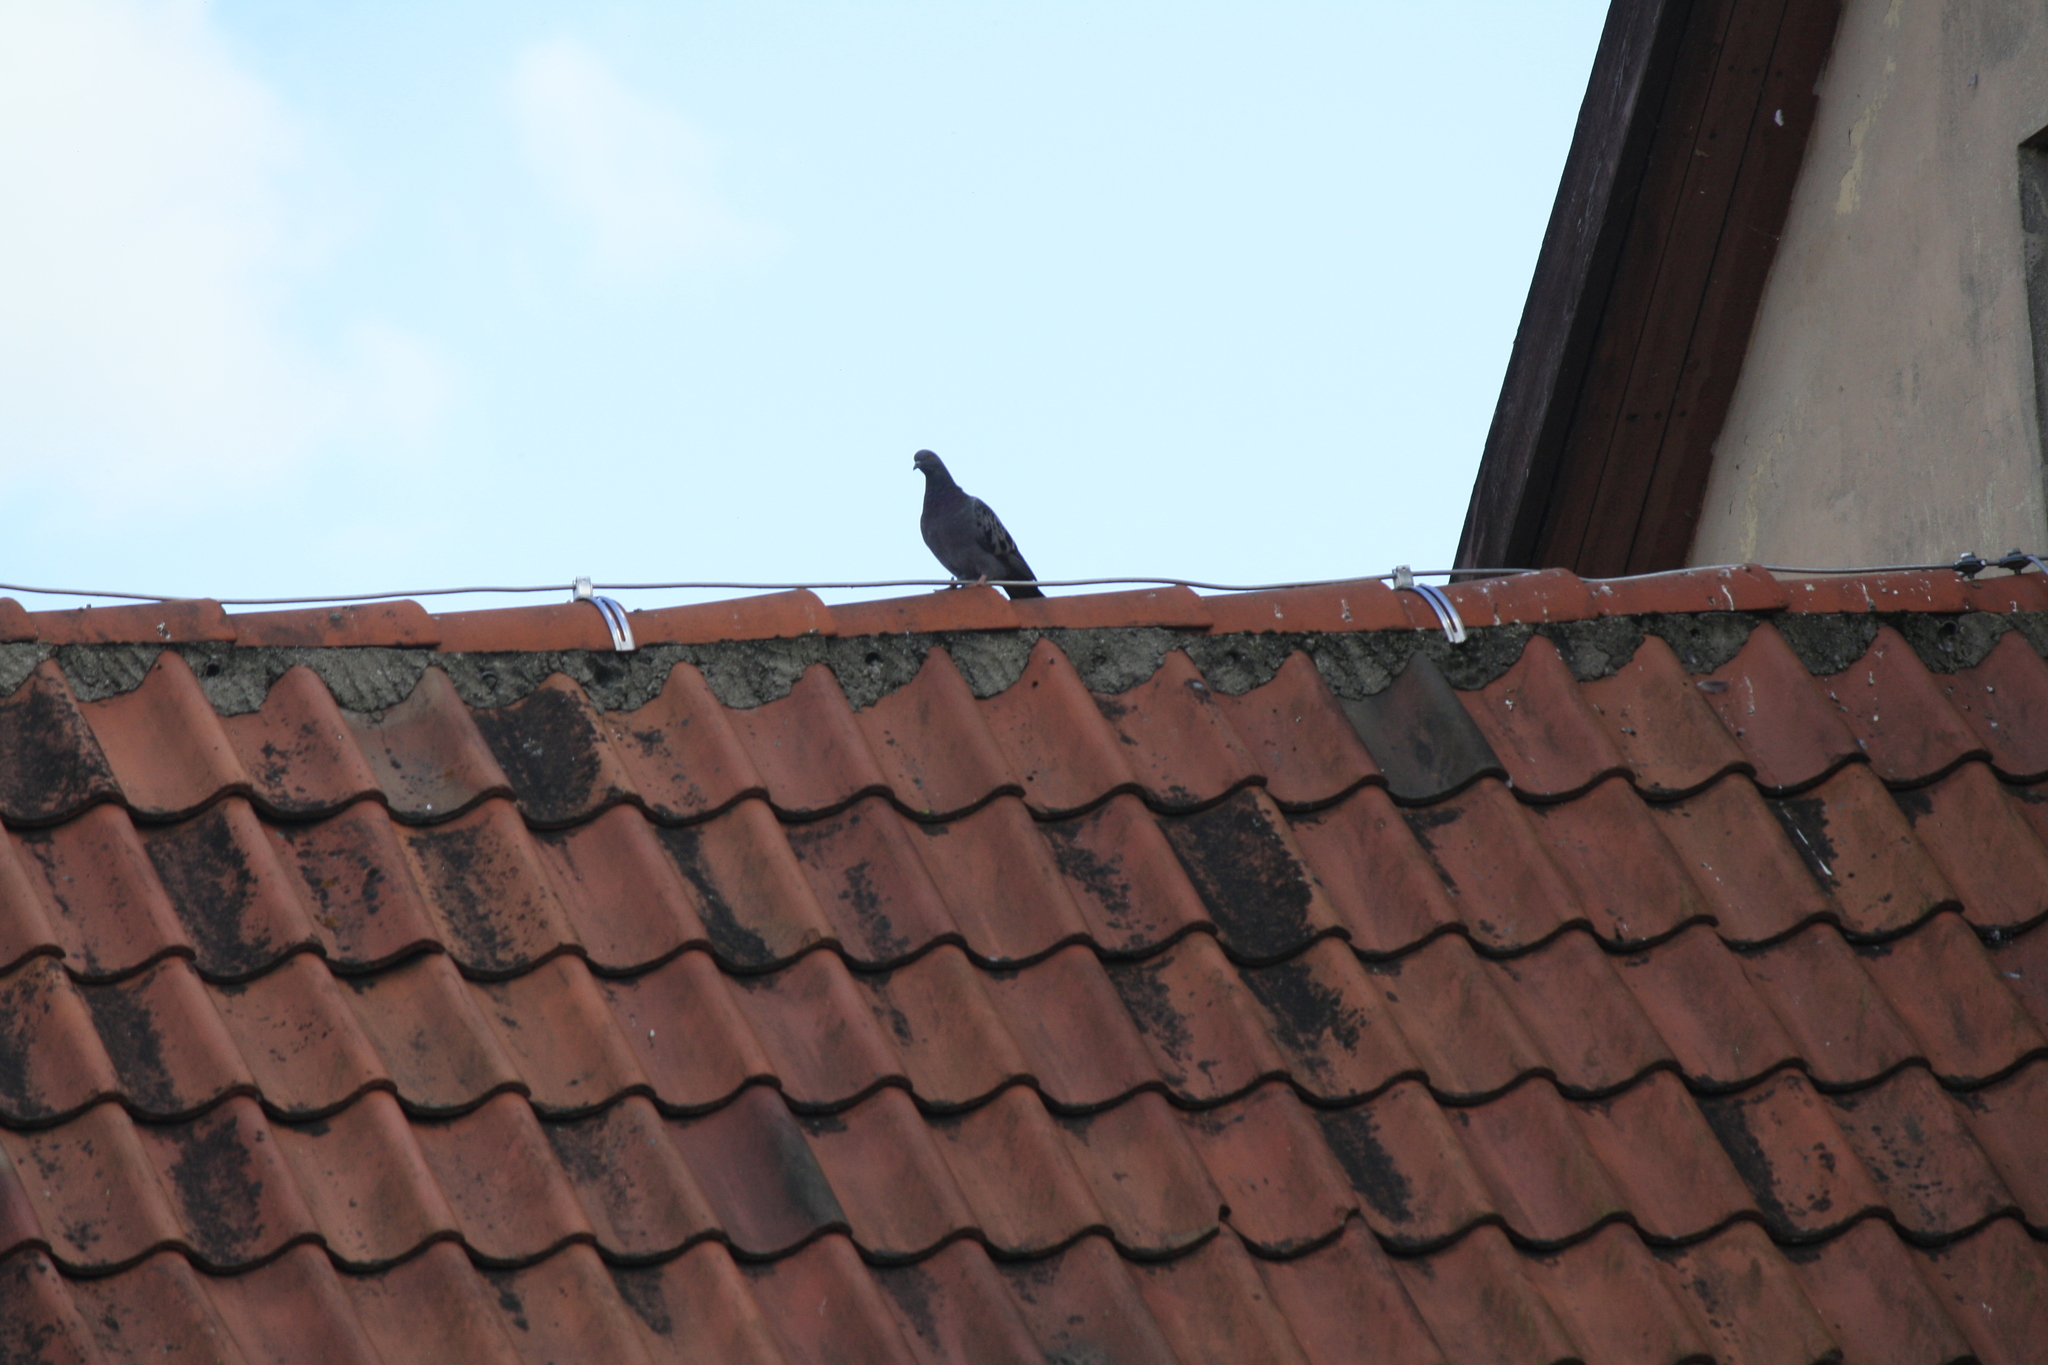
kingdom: Animalia
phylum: Chordata
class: Aves
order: Columbiformes
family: Columbidae
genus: Columba
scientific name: Columba livia
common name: Rock pigeon
